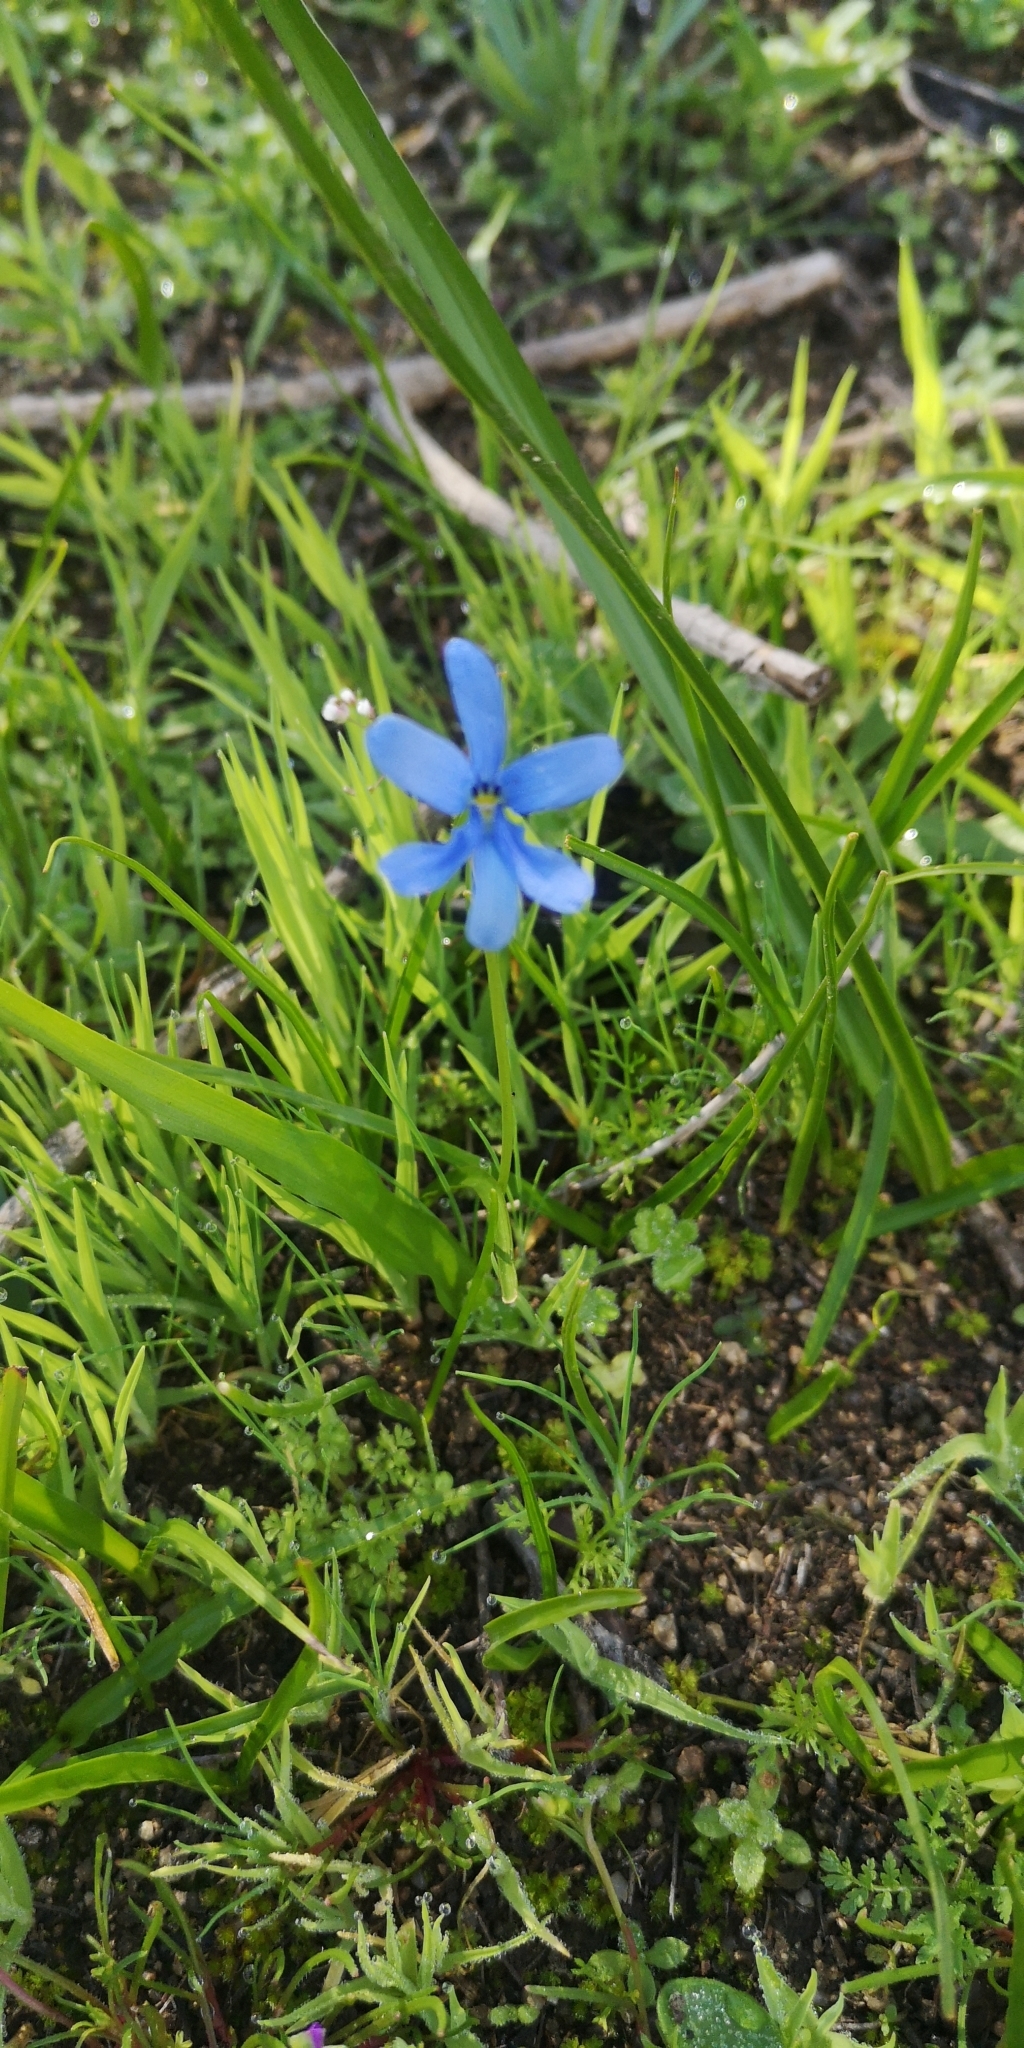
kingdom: Plantae
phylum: Tracheophyta
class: Liliopsida
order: Asparagales
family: Tecophilaeaceae
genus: Tecophilaea
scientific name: Tecophilaea violiflora
